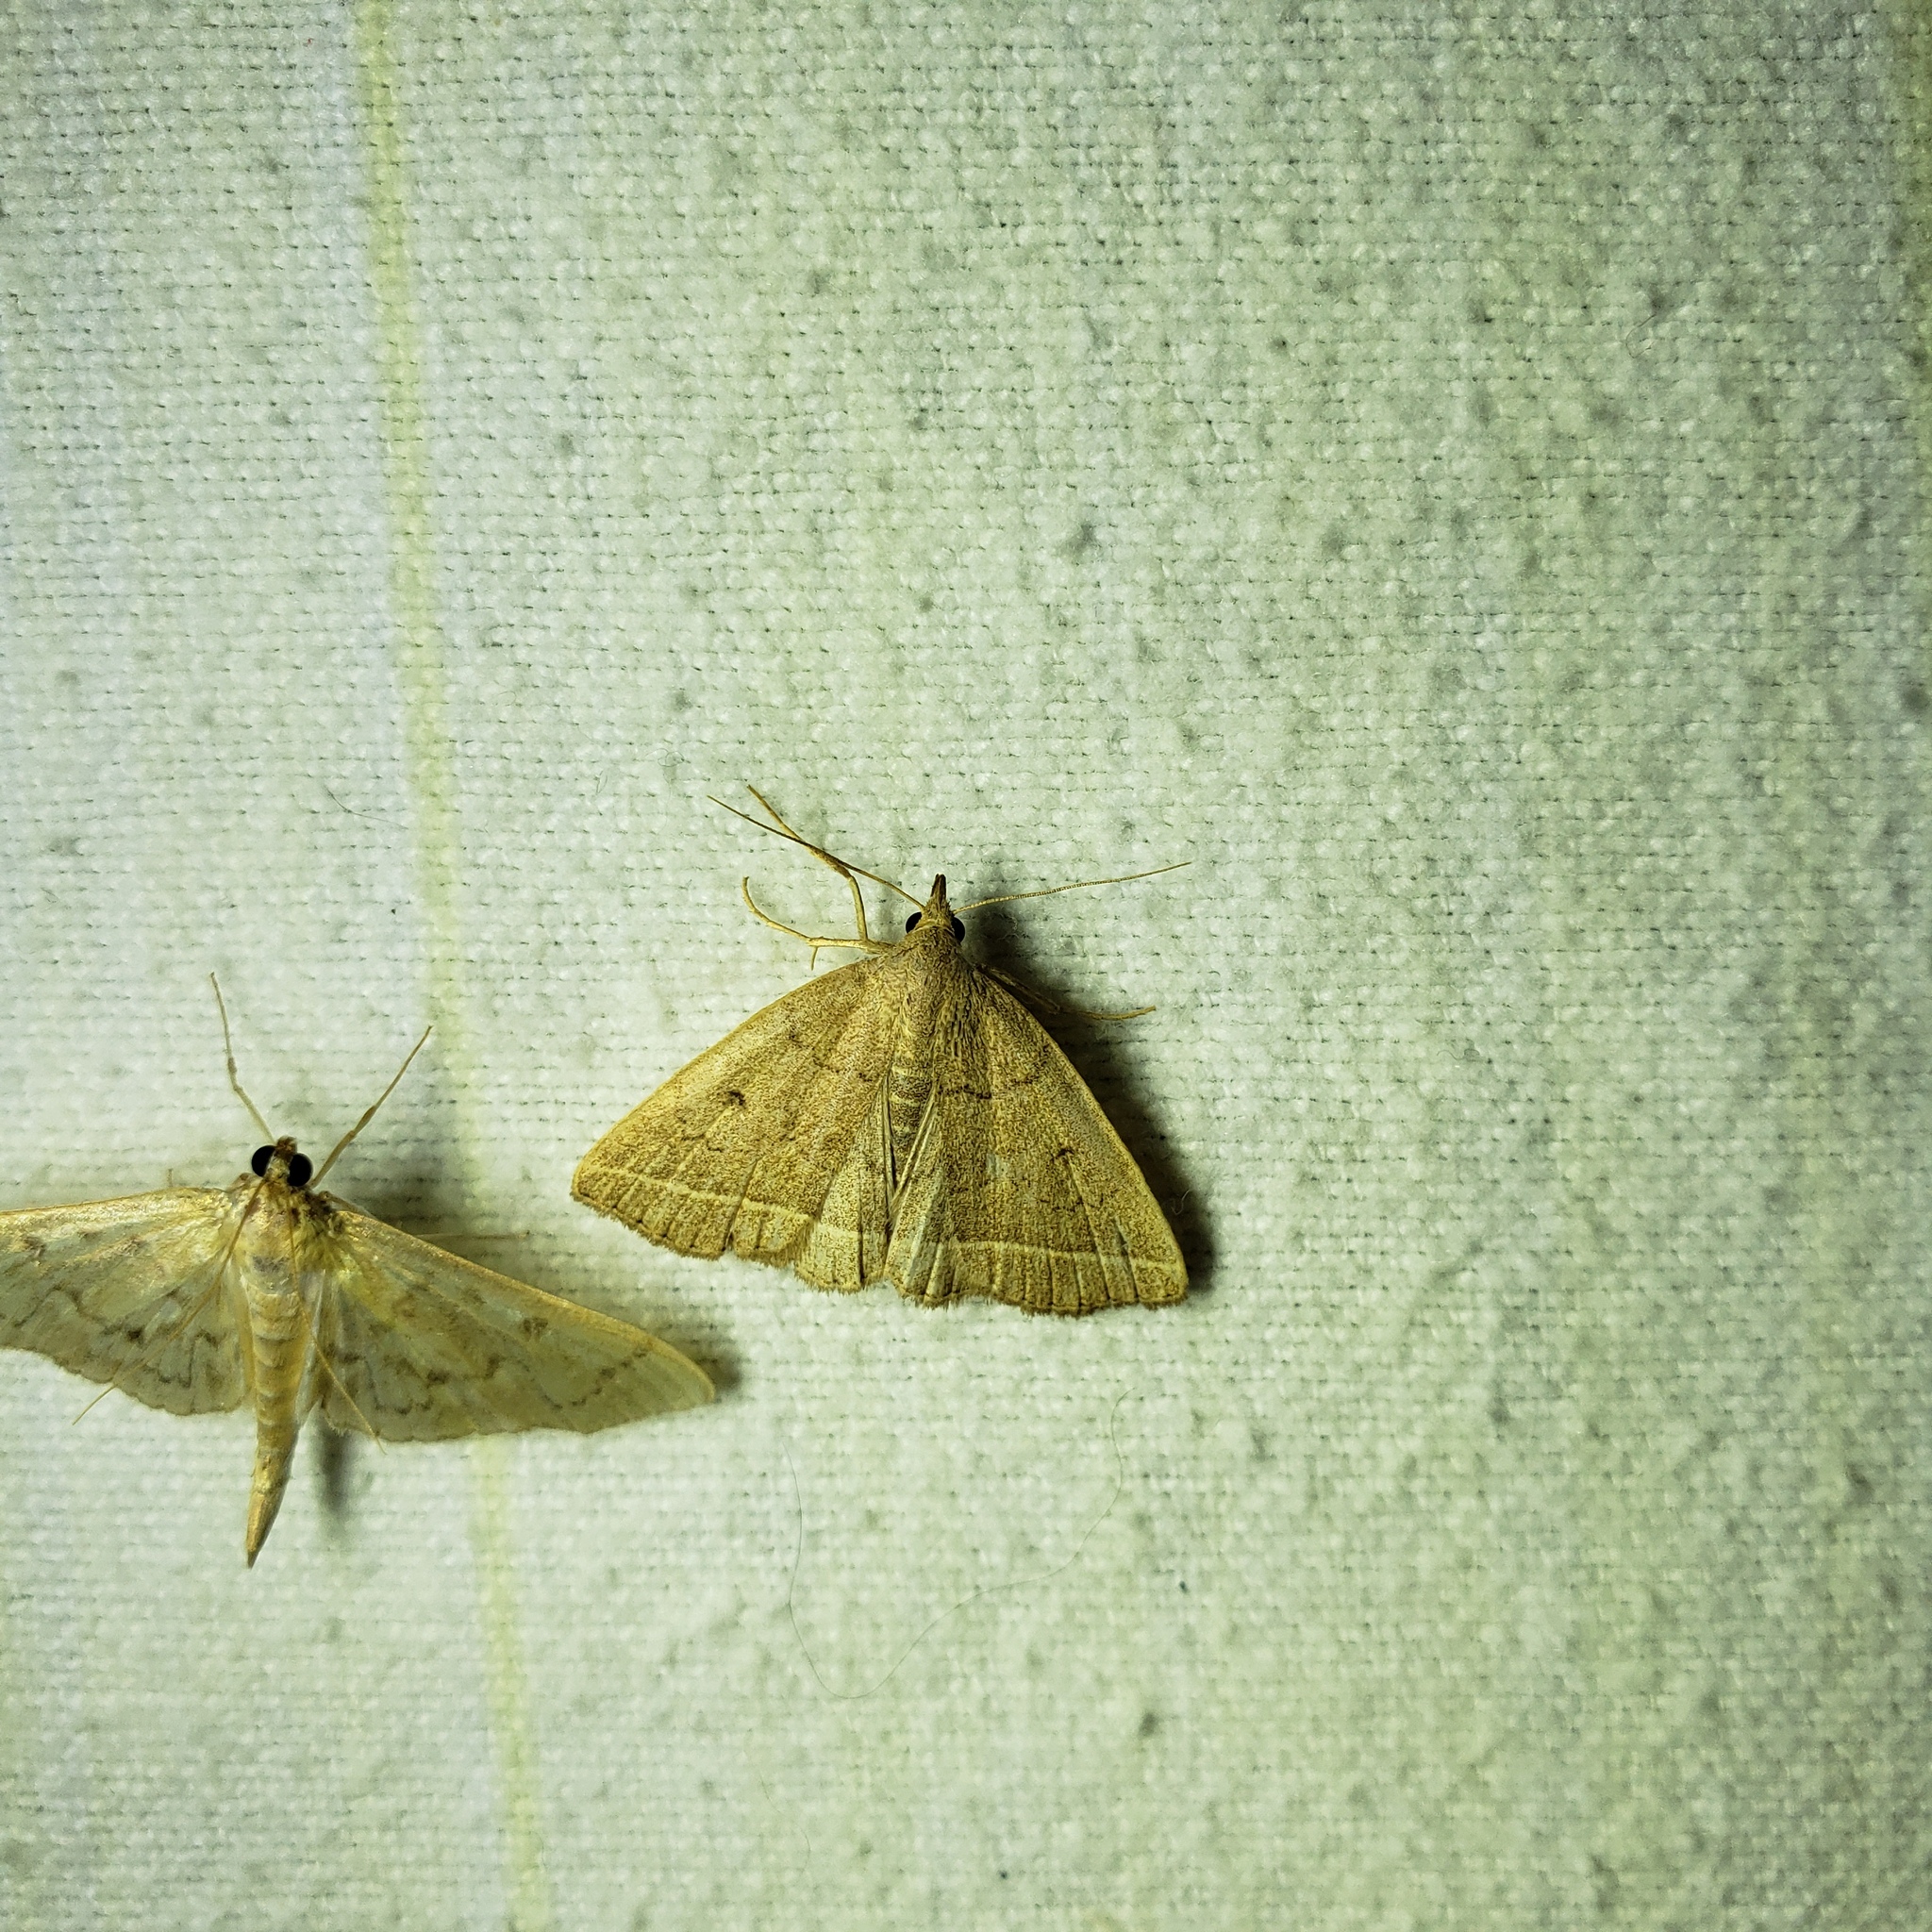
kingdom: Animalia
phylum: Arthropoda
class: Insecta
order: Lepidoptera
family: Erebidae
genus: Zanclognatha
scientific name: Zanclognatha marcidilinea
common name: Yellowish fan-foot
